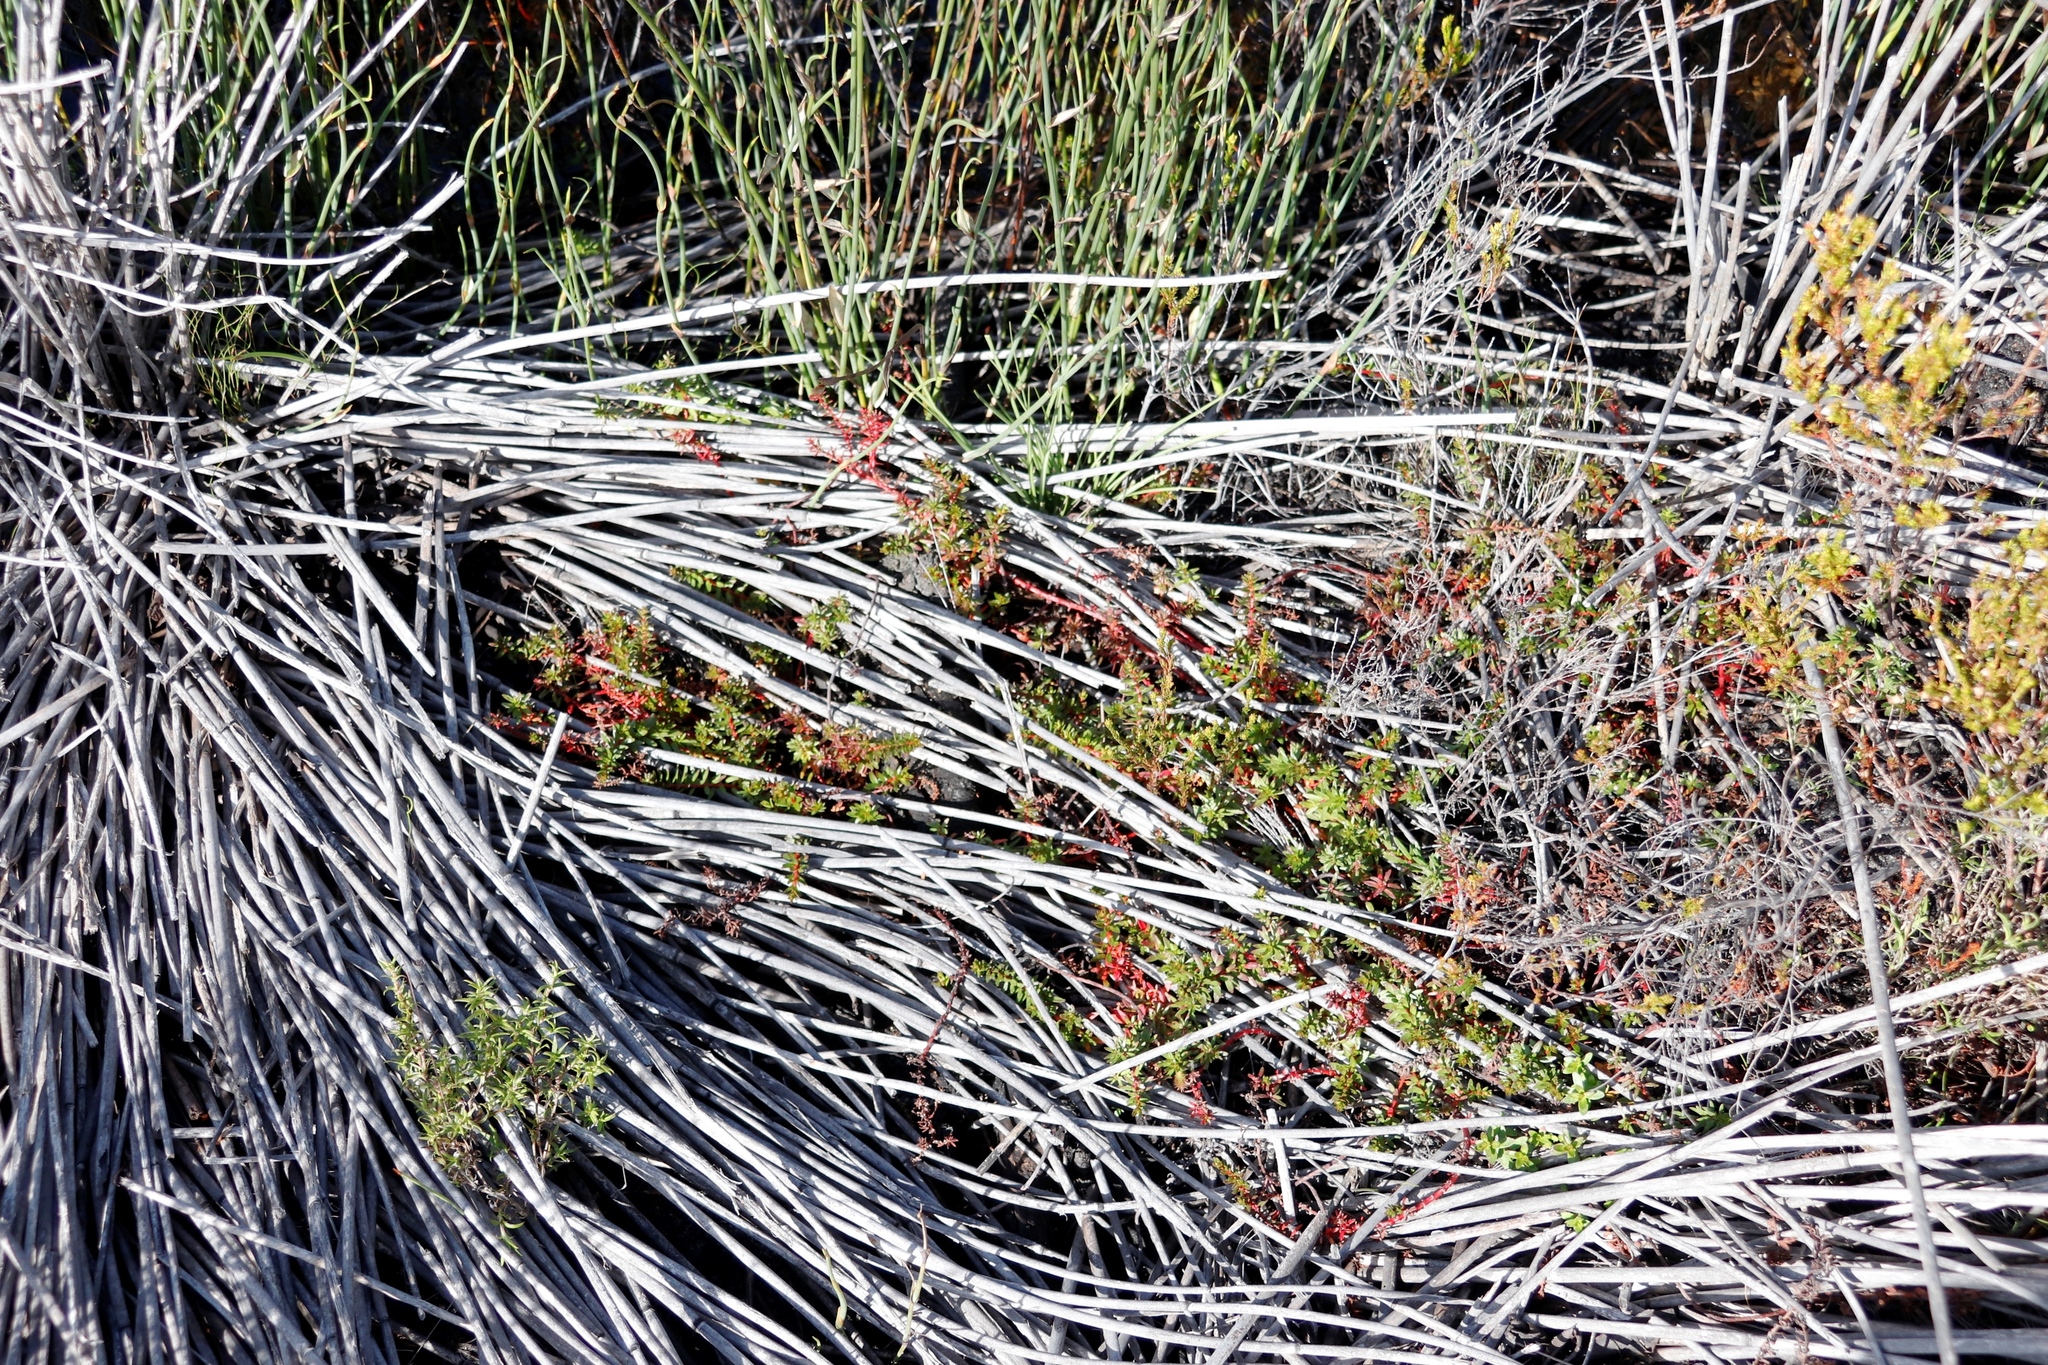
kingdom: Plantae
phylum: Tracheophyta
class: Magnoliopsida
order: Saxifragales
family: Haloragaceae
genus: Laurembergia
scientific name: Laurembergia repens
